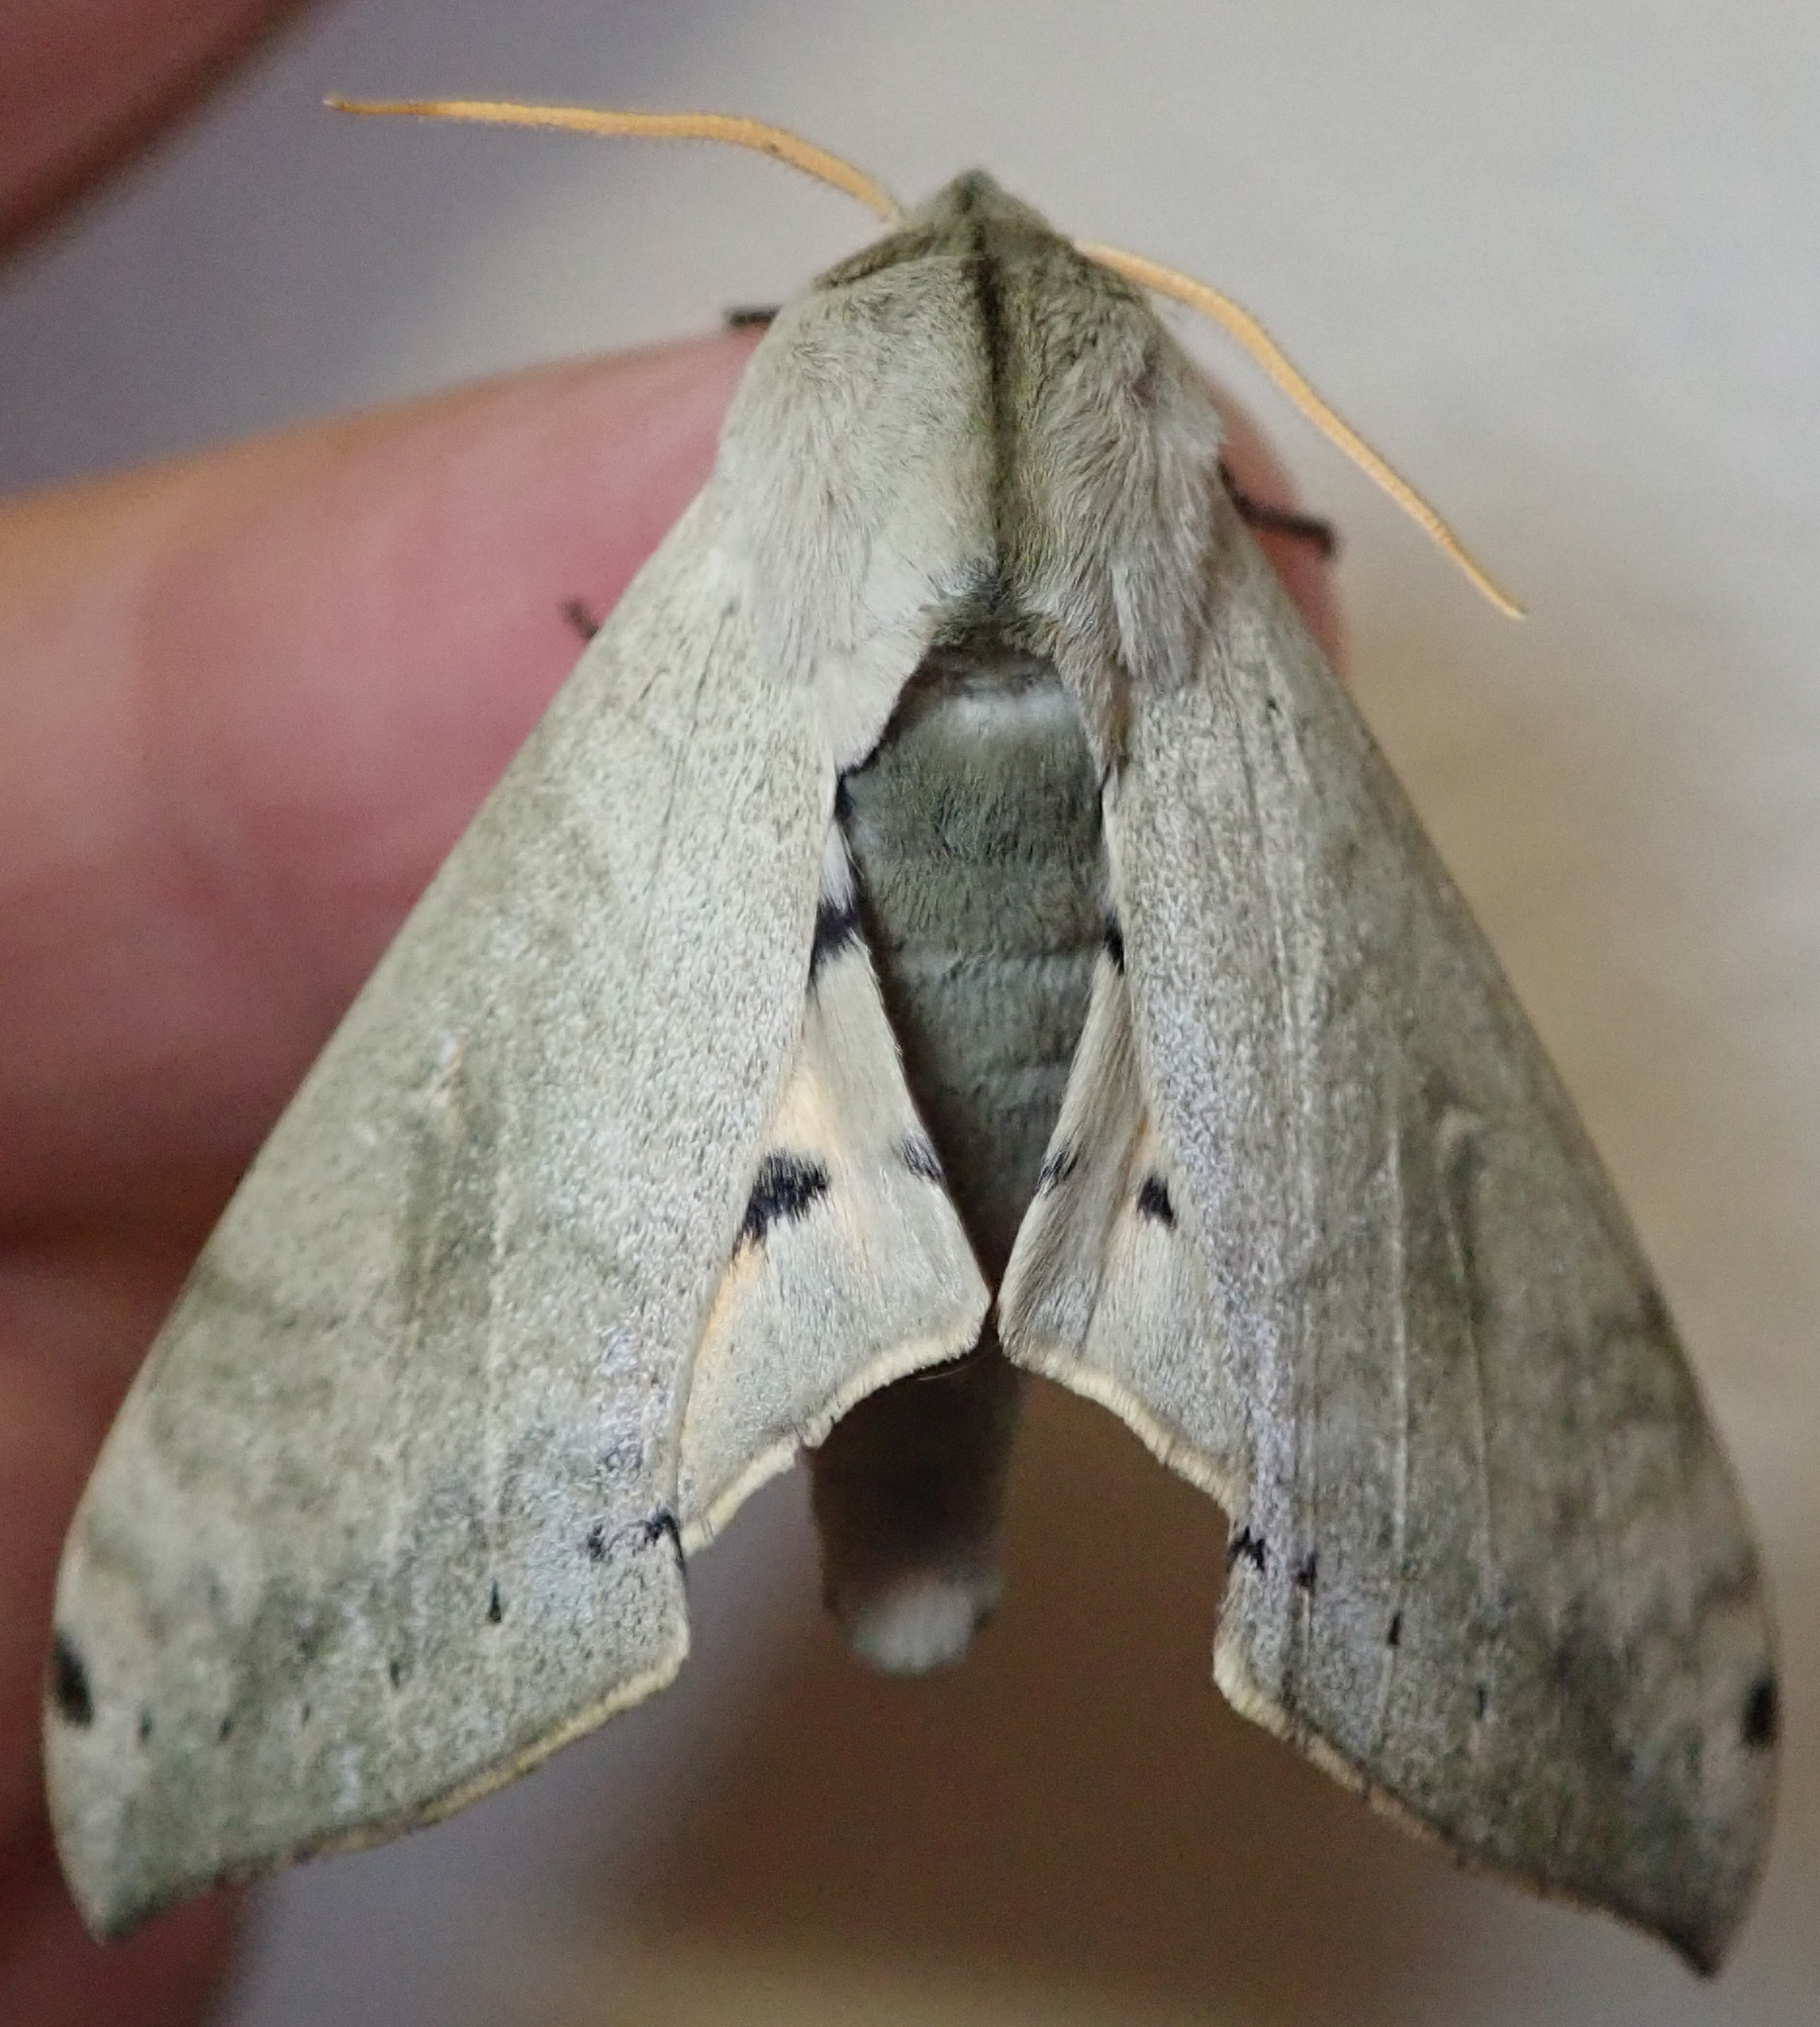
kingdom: Animalia
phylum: Arthropoda
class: Insecta
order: Lepidoptera
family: Sphingidae
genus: Pseudoclanis
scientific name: Pseudoclanis postica
